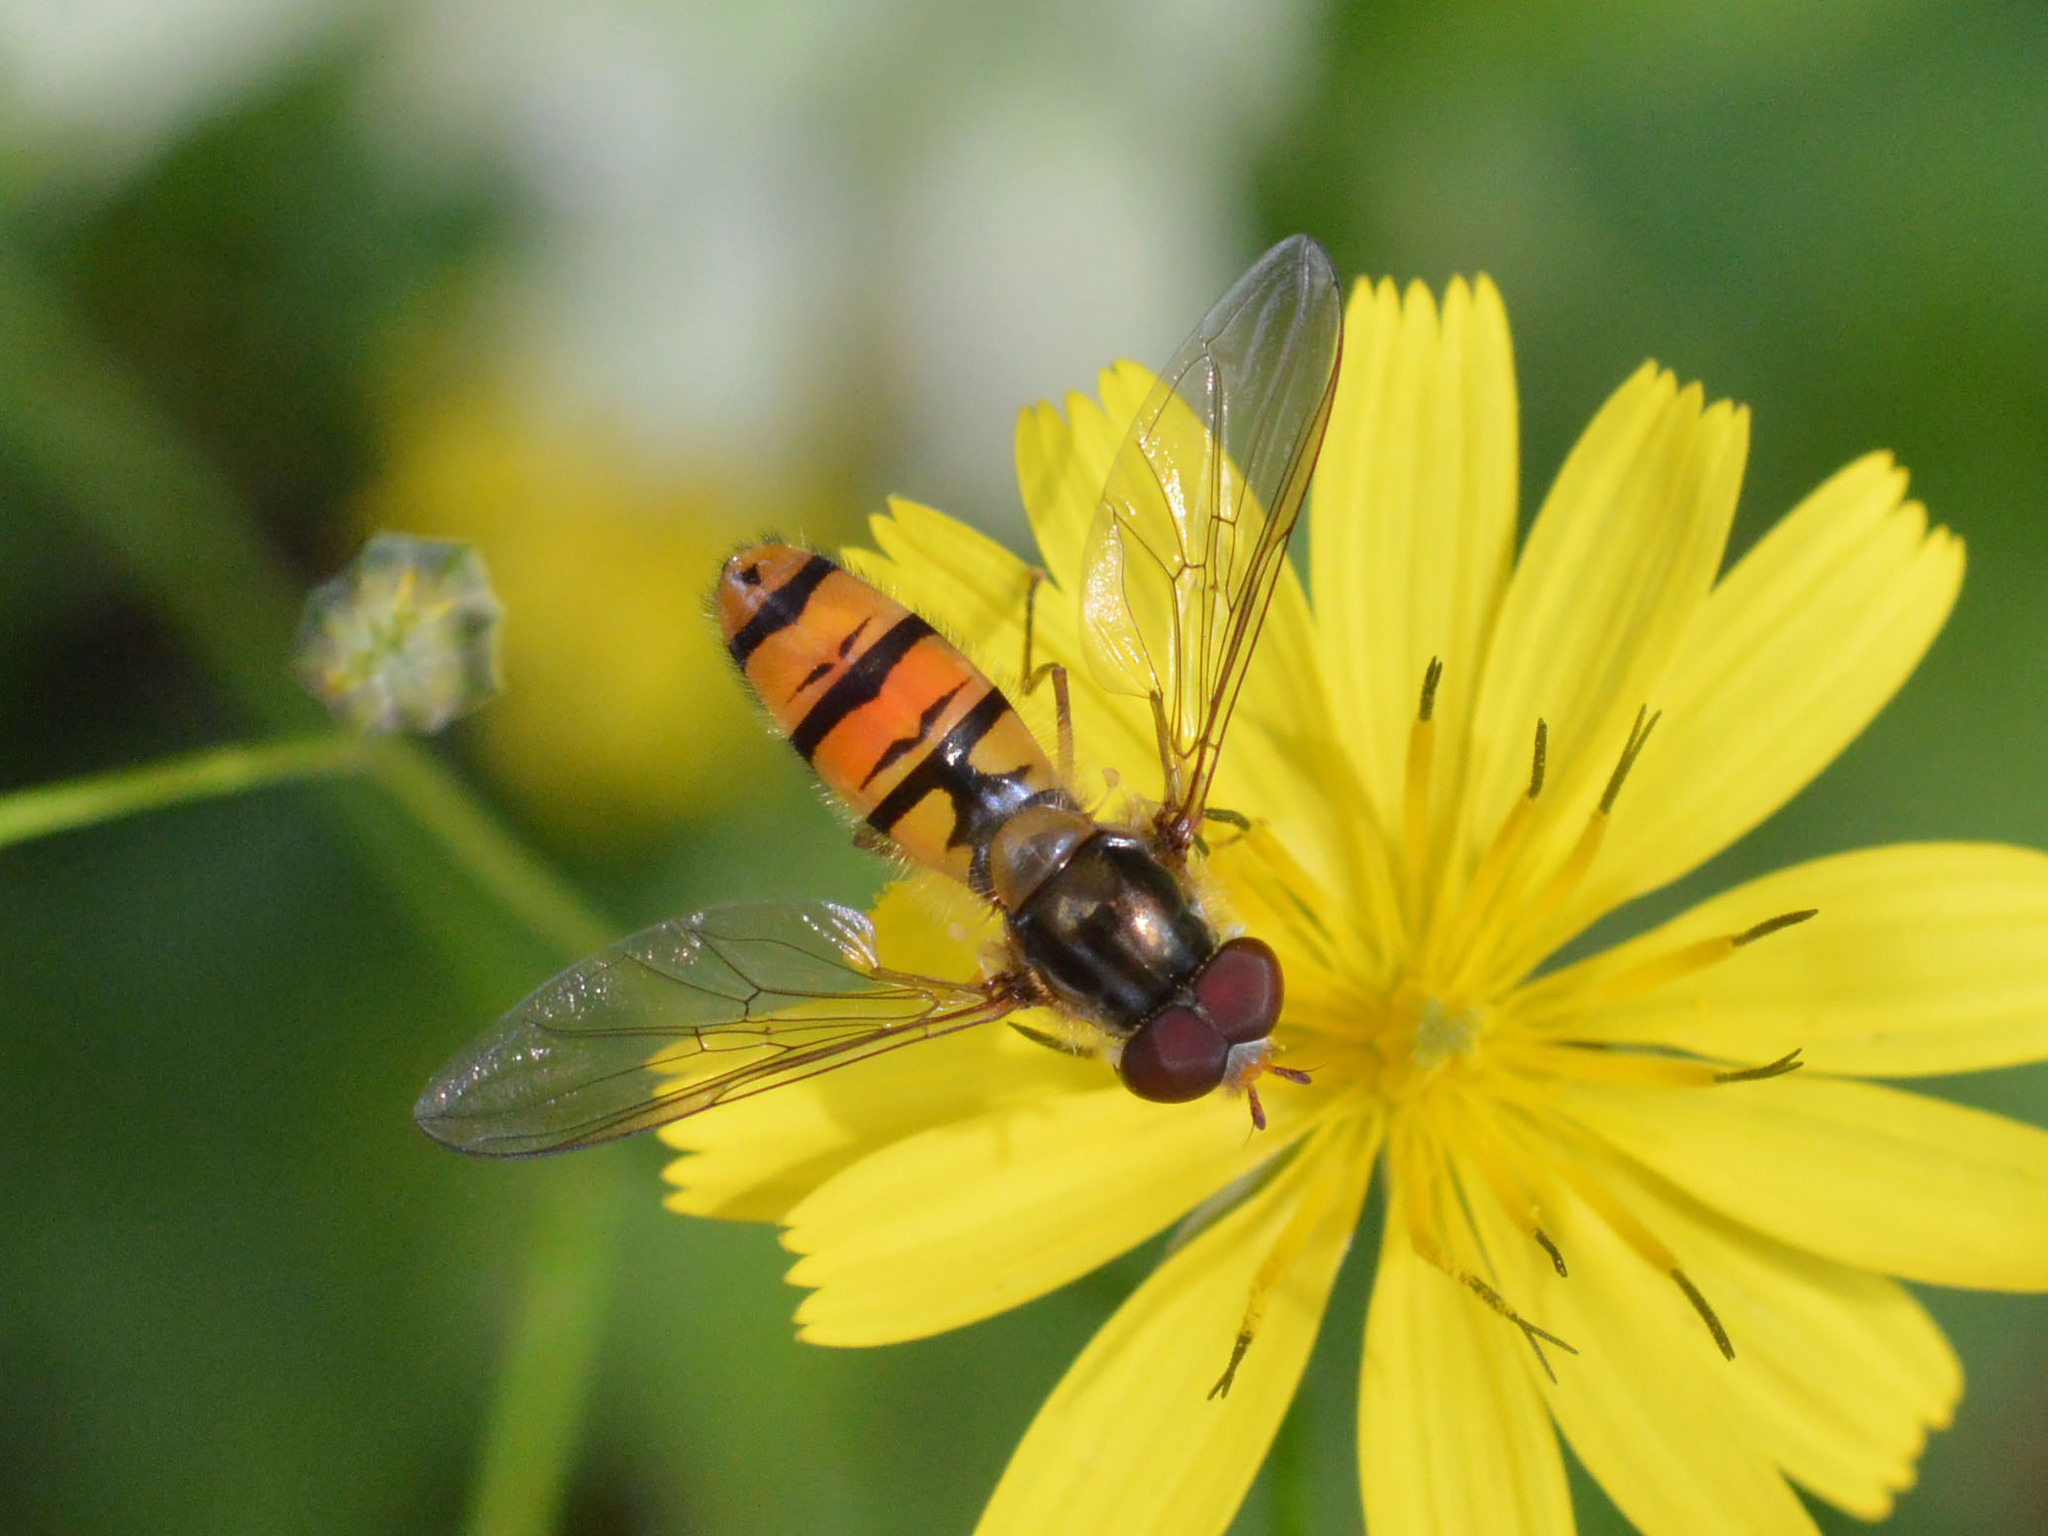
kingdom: Animalia
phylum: Arthropoda
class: Insecta
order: Diptera
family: Syrphidae
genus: Episyrphus
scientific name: Episyrphus balteatus
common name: Marmalade hoverfly
